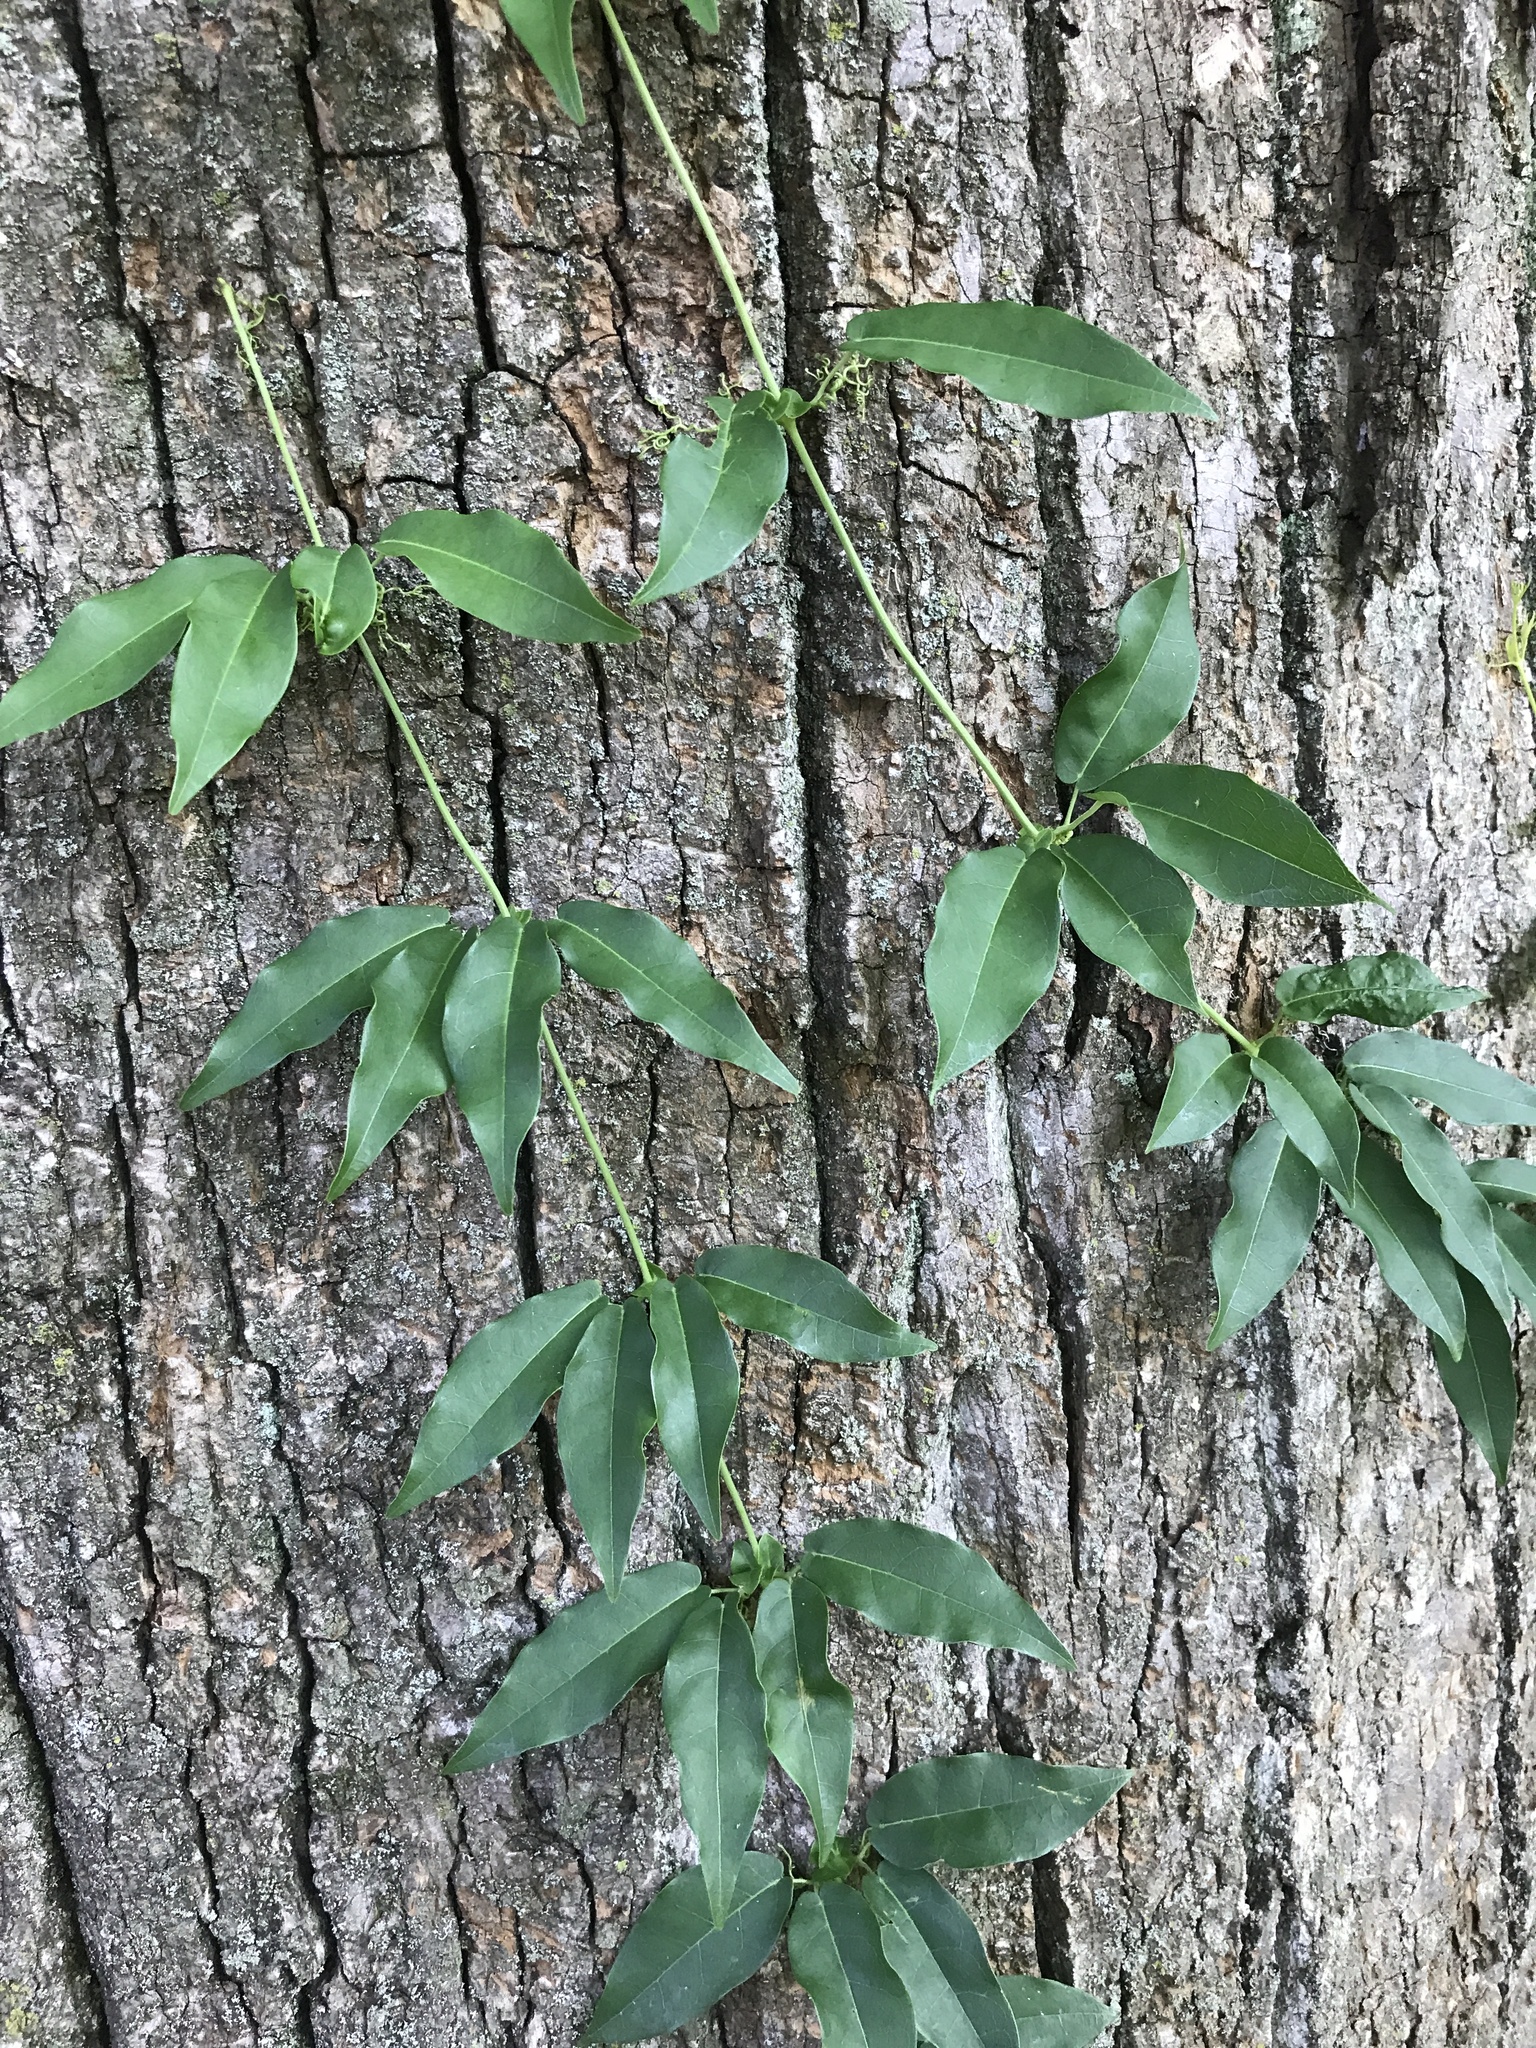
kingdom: Plantae
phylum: Tracheophyta
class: Magnoliopsida
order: Lamiales
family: Bignoniaceae
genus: Bignonia
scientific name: Bignonia capreolata
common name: Crossvine
